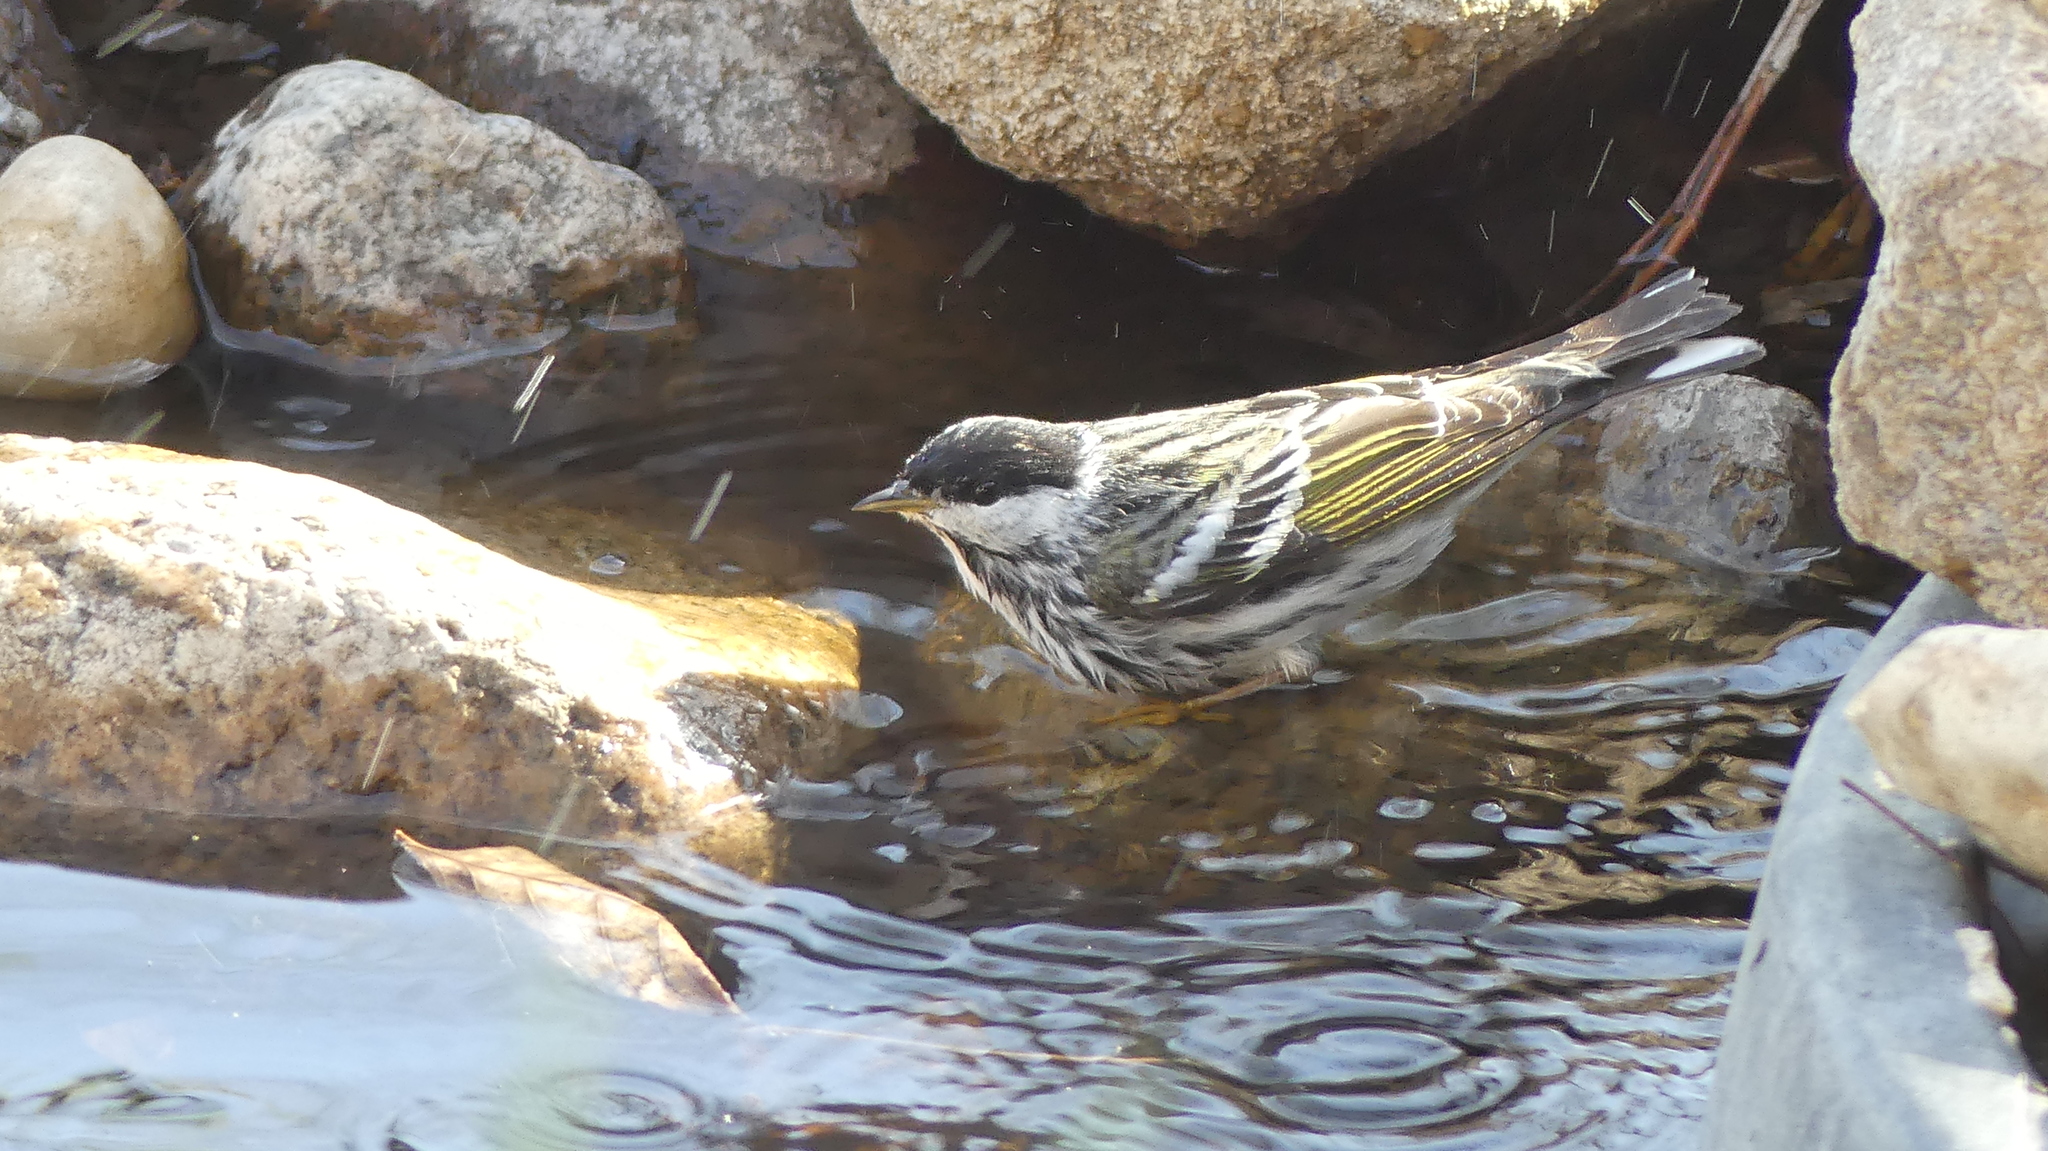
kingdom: Animalia
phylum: Chordata
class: Aves
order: Passeriformes
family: Parulidae
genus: Setophaga
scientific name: Setophaga striata
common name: Blackpoll warbler
